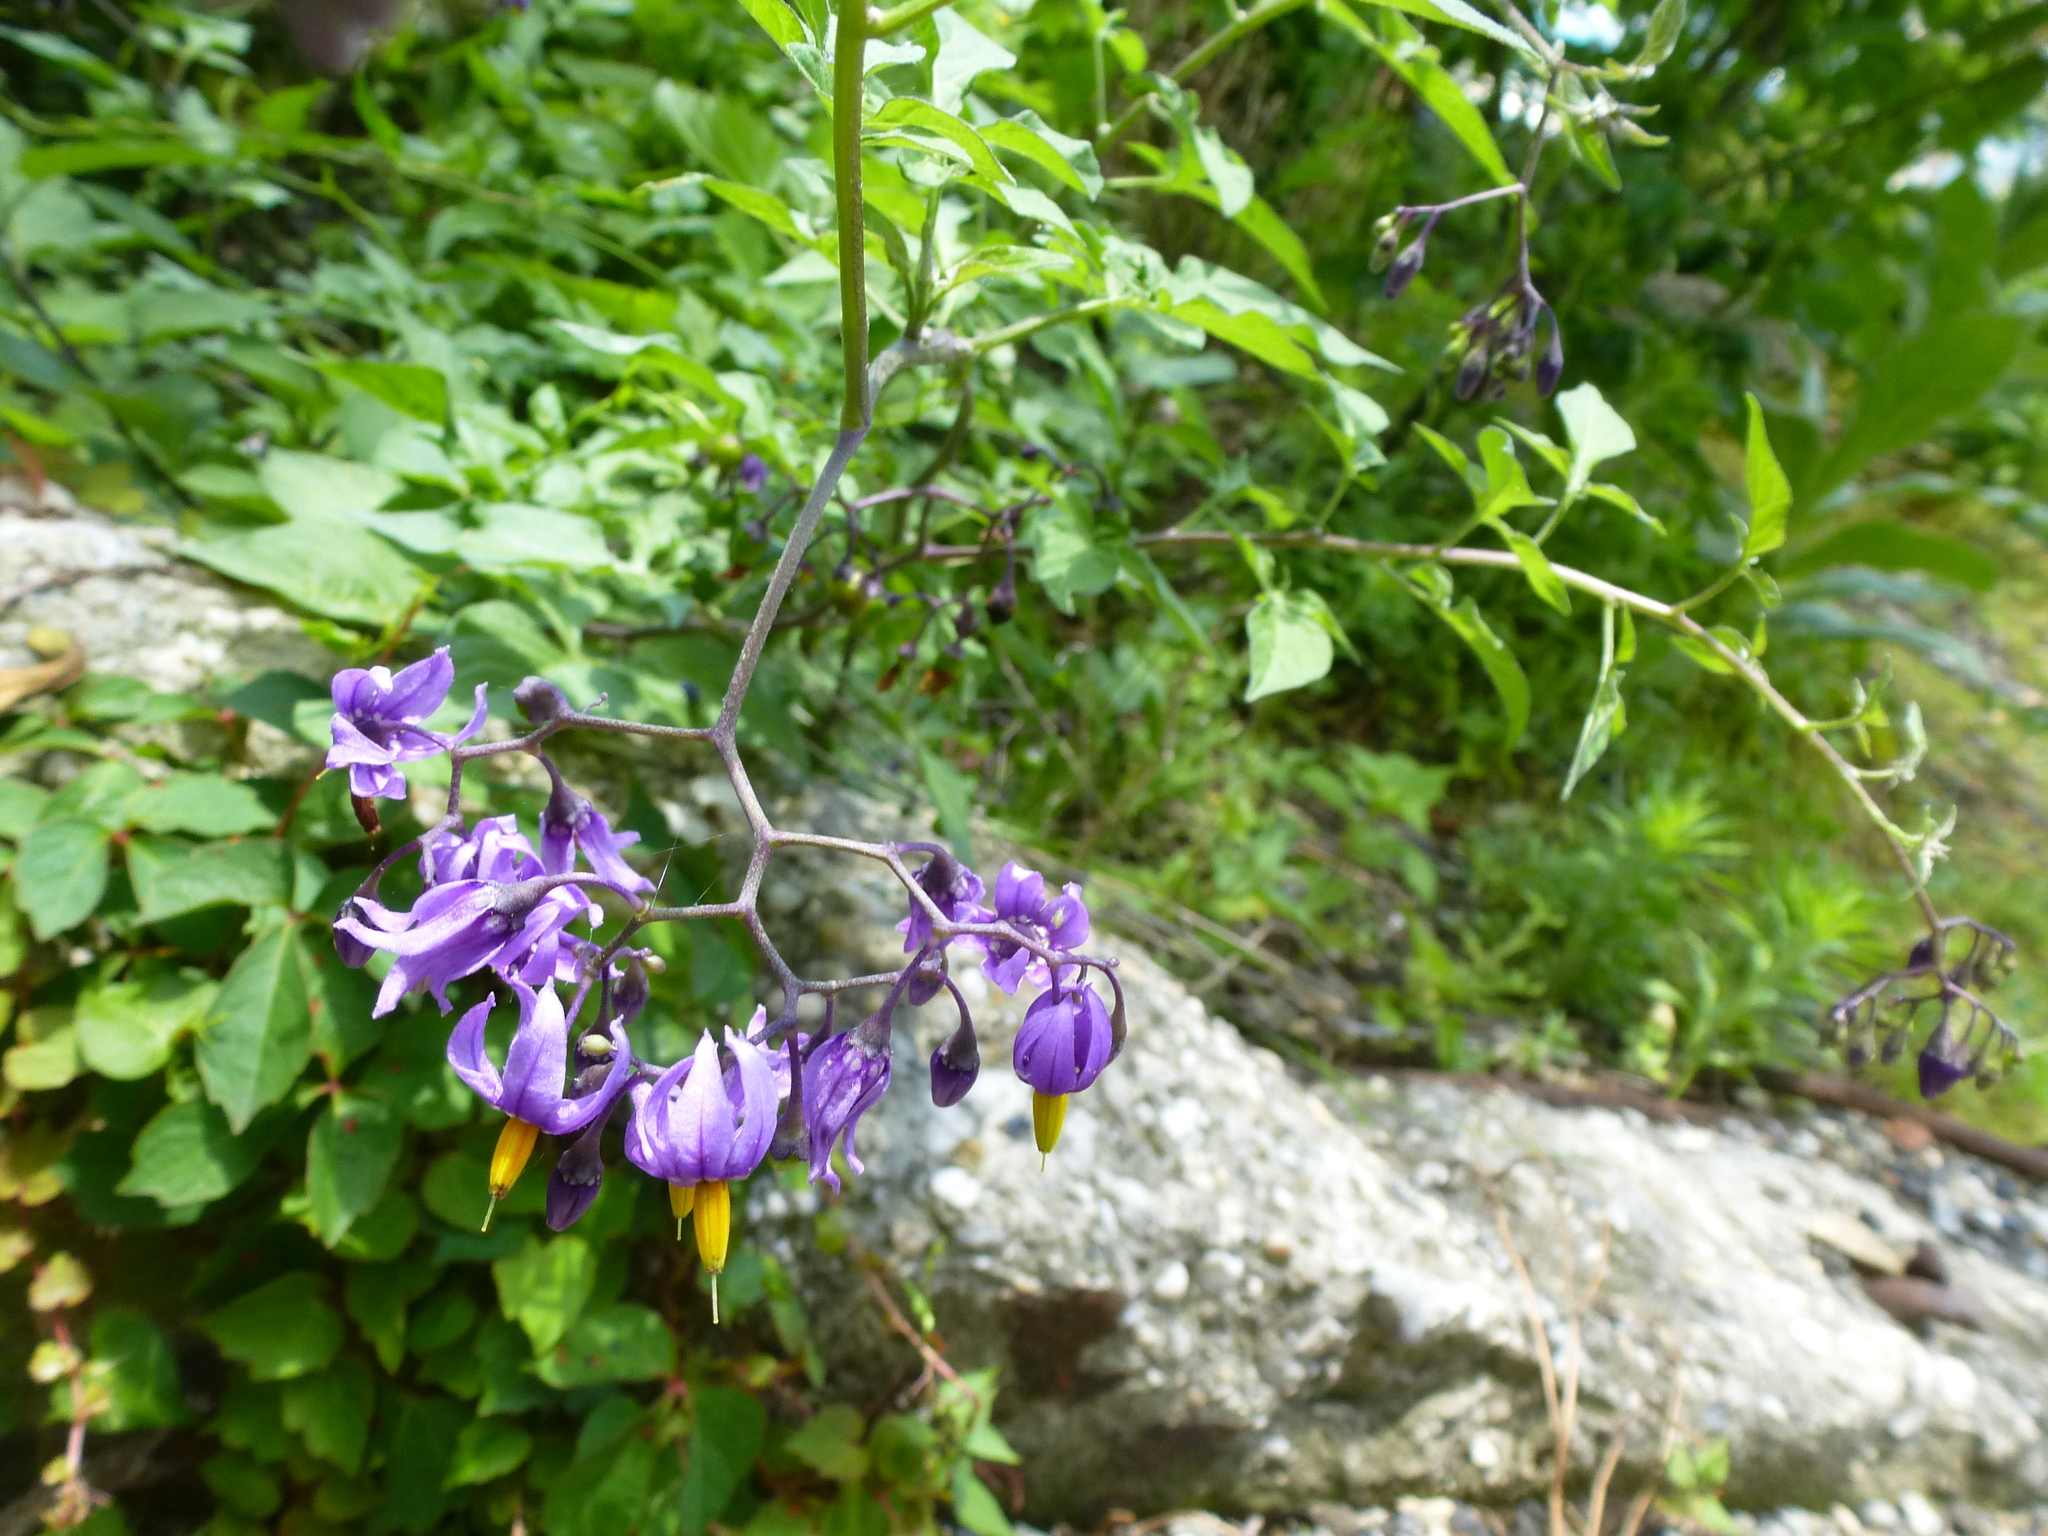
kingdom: Plantae
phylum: Tracheophyta
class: Magnoliopsida
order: Solanales
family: Solanaceae
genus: Solanum
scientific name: Solanum dulcamara
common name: Climbing nightshade
